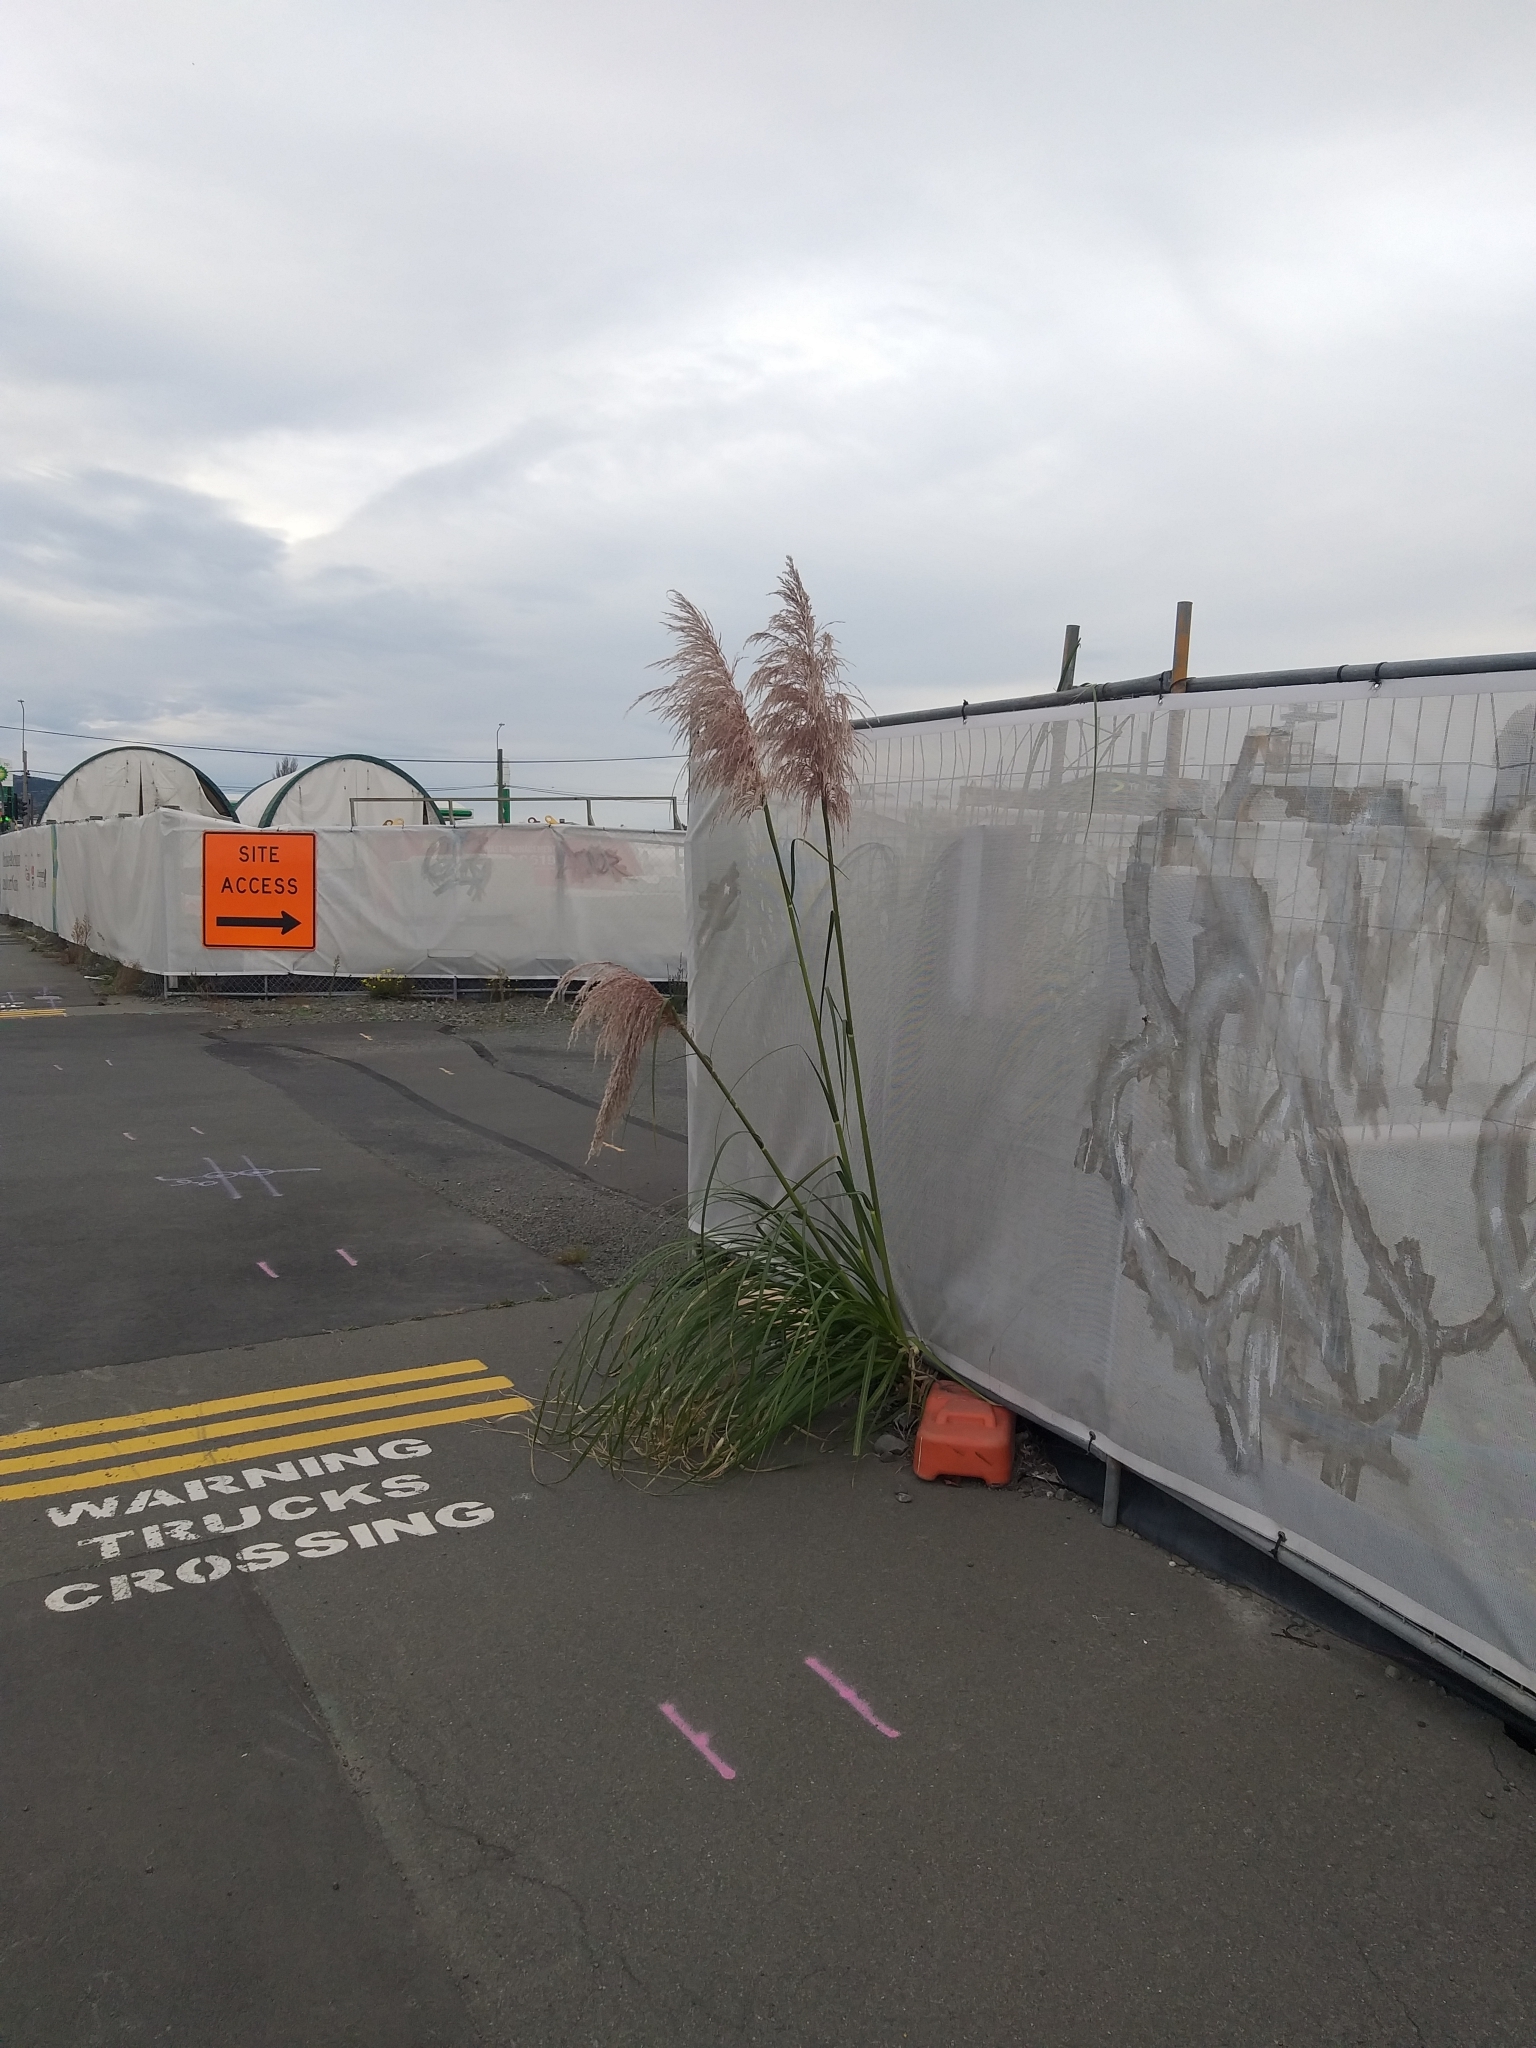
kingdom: Plantae
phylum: Tracheophyta
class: Liliopsida
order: Poales
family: Poaceae
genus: Cortaderia
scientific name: Cortaderia jubata
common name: Purple pampas grass
